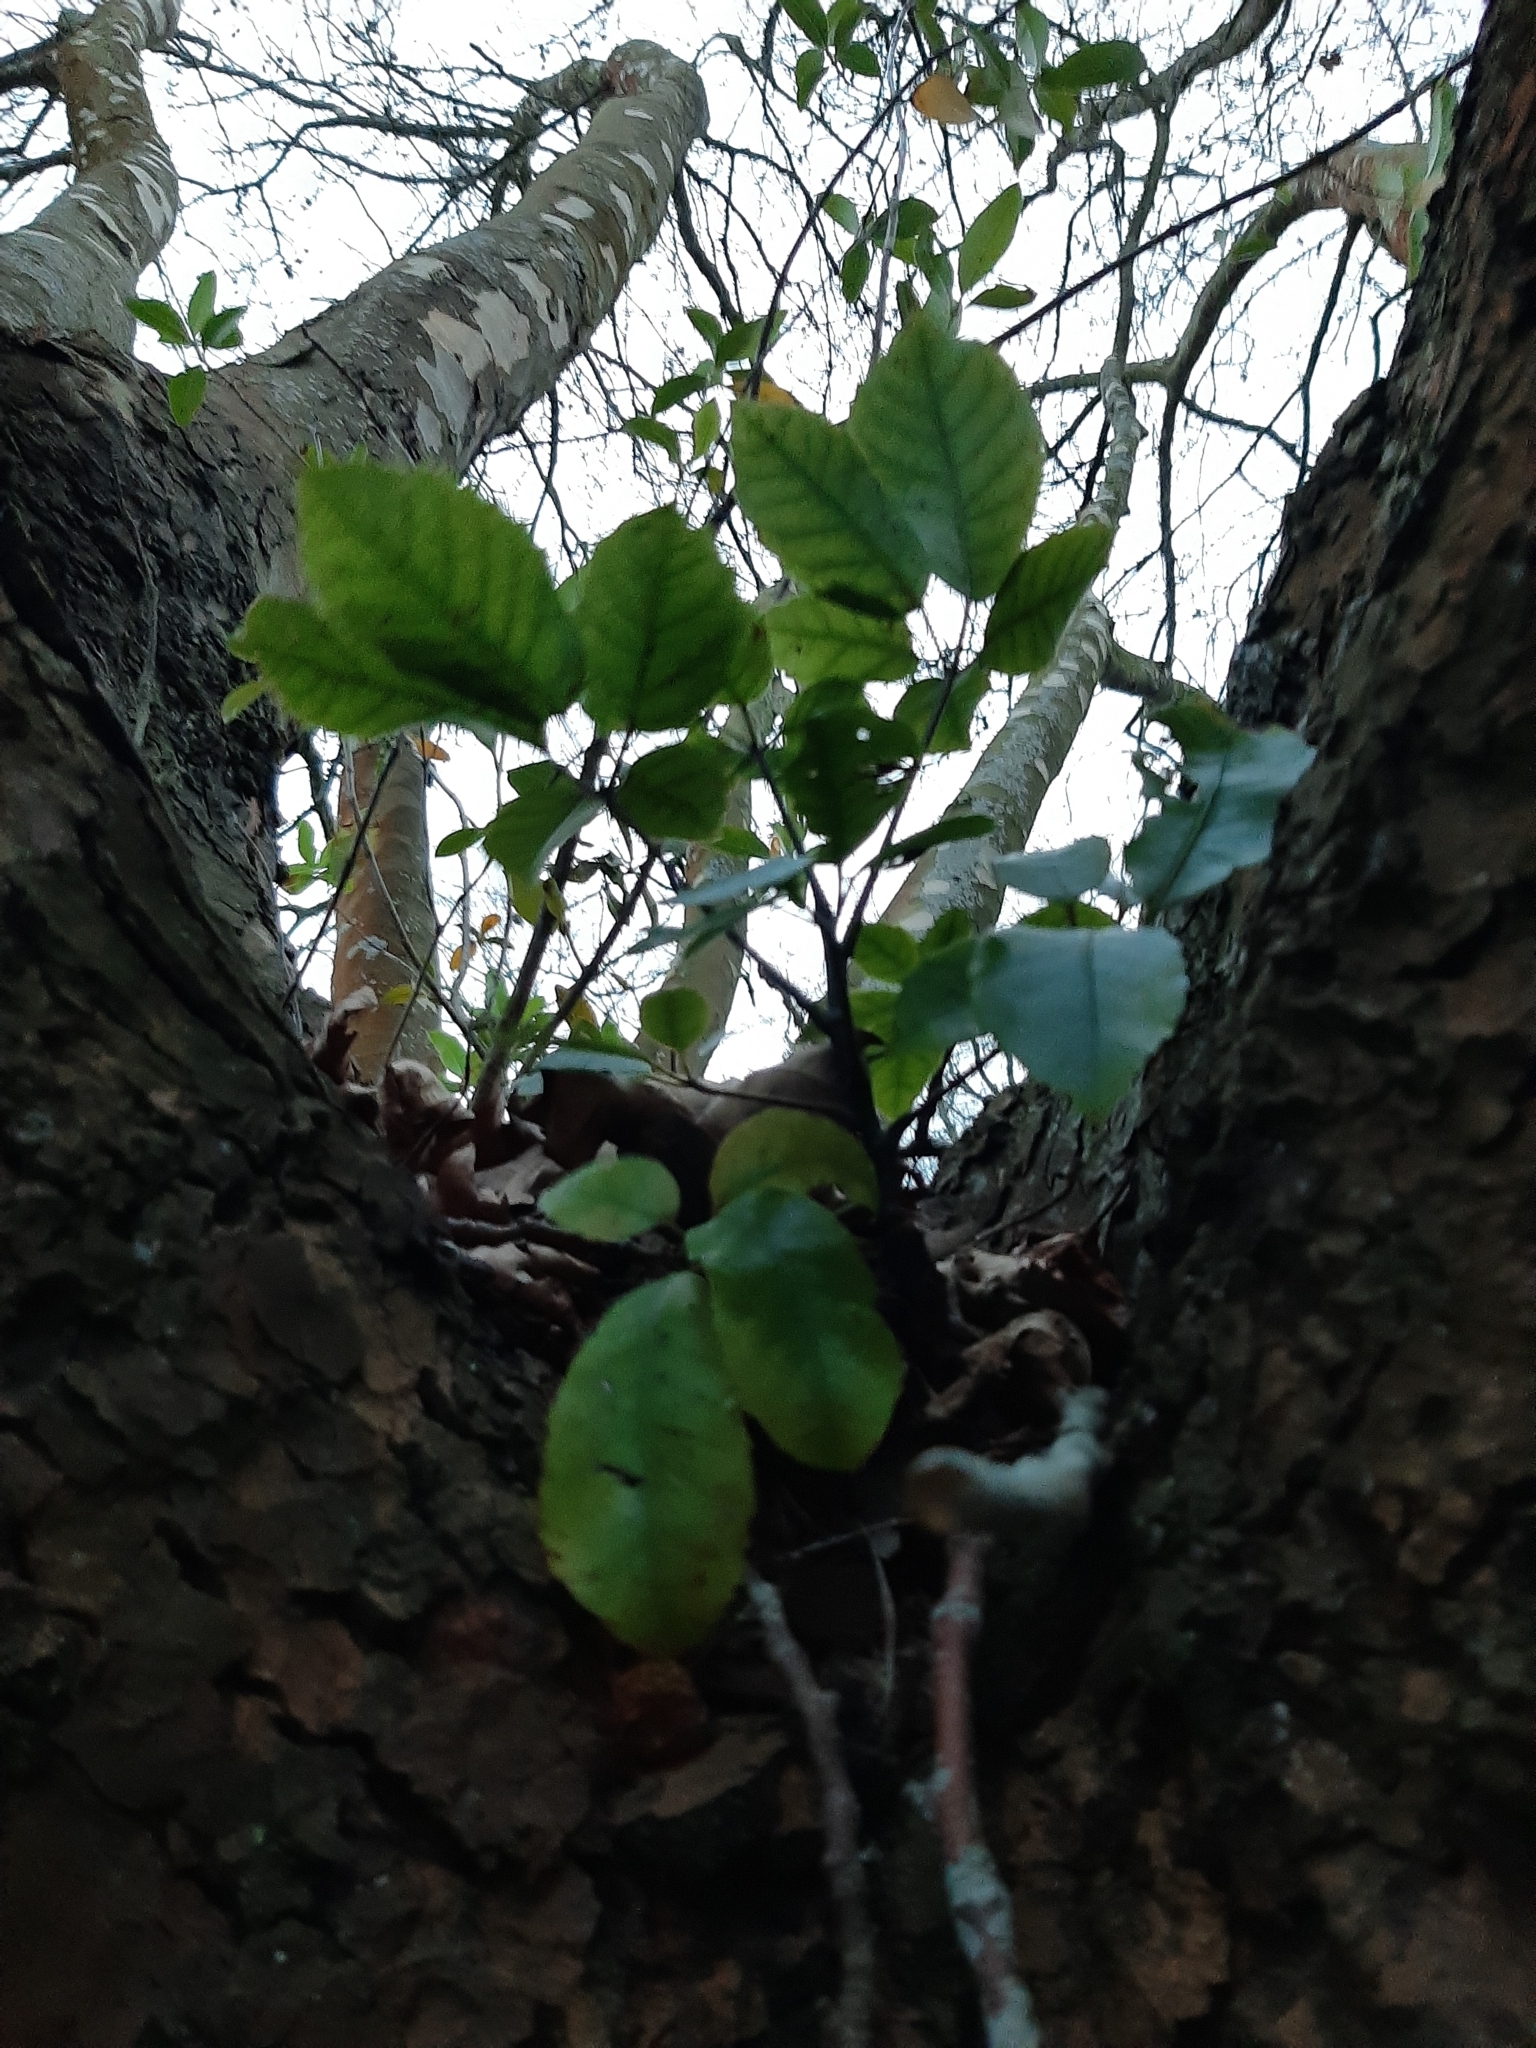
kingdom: Plantae
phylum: Tracheophyta
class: Magnoliopsida
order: Apiales
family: Araliaceae
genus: Neopanax
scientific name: Neopanax arboreus
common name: Five-fingers
